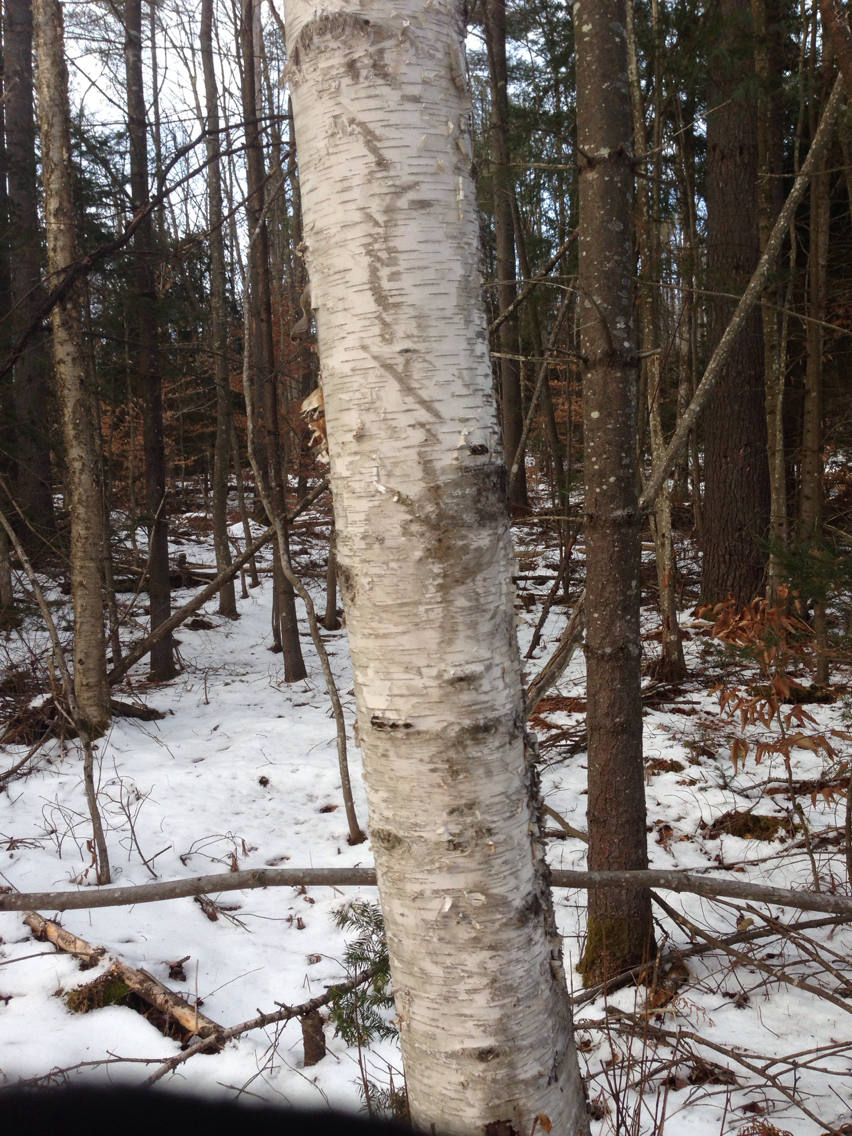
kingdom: Plantae
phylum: Tracheophyta
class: Magnoliopsida
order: Fagales
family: Betulaceae
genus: Betula
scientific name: Betula papyrifera
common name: Paper birch
